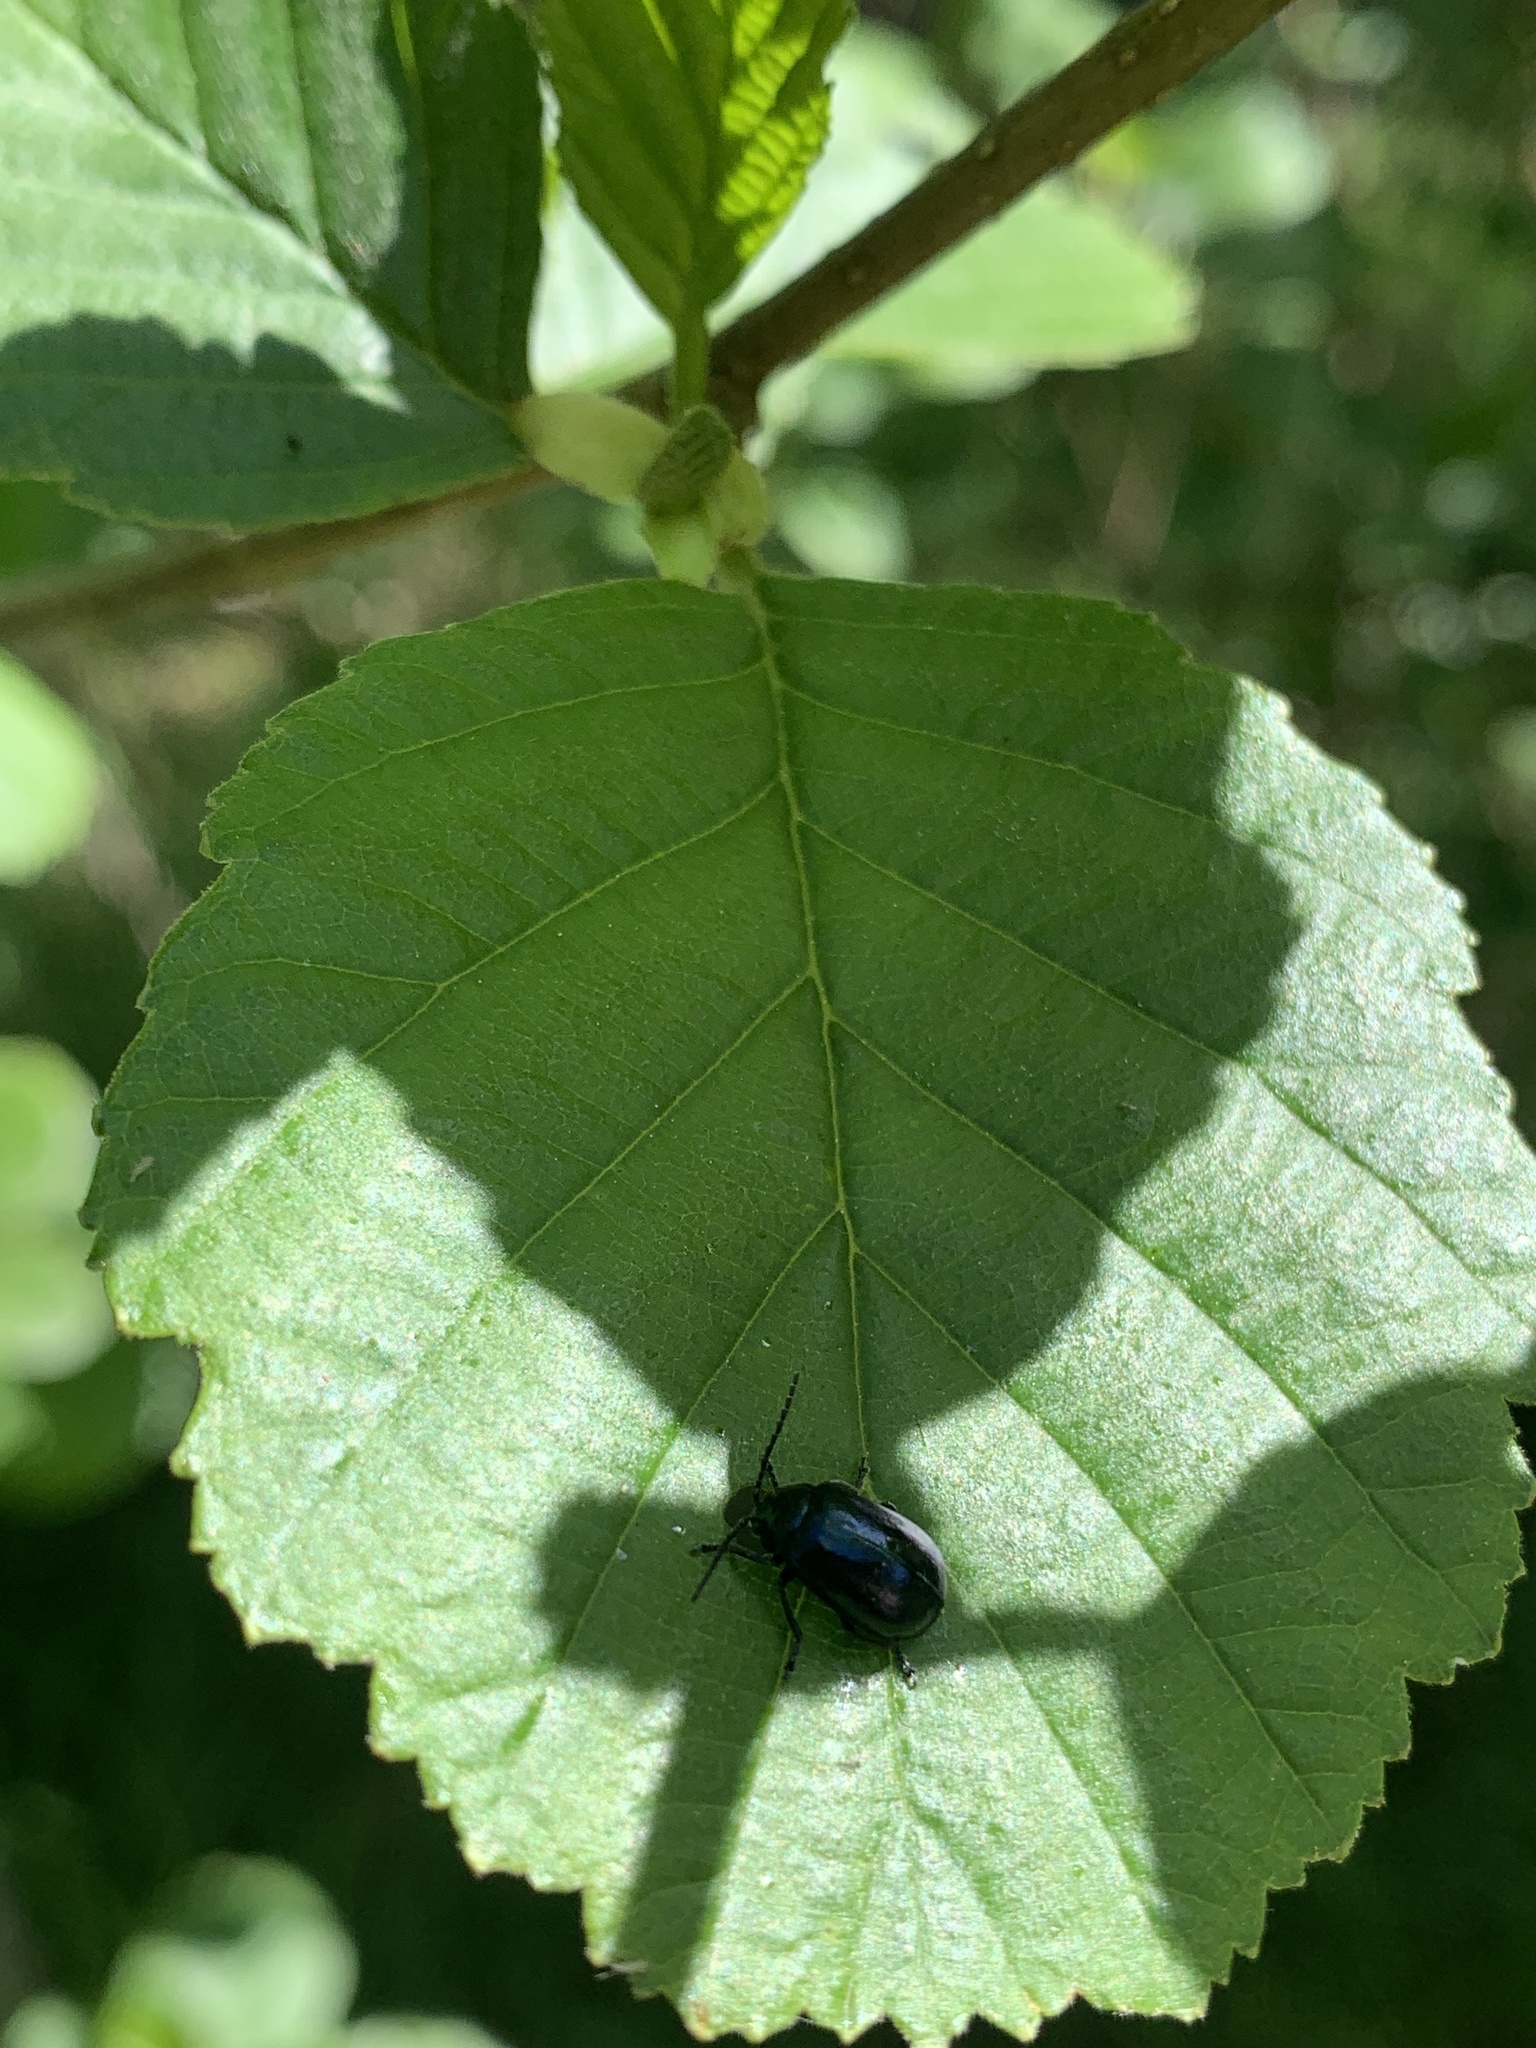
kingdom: Animalia
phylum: Arthropoda
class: Insecta
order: Coleoptera
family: Chrysomelidae
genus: Agelastica
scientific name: Agelastica alni
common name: Alder leaf beetle
